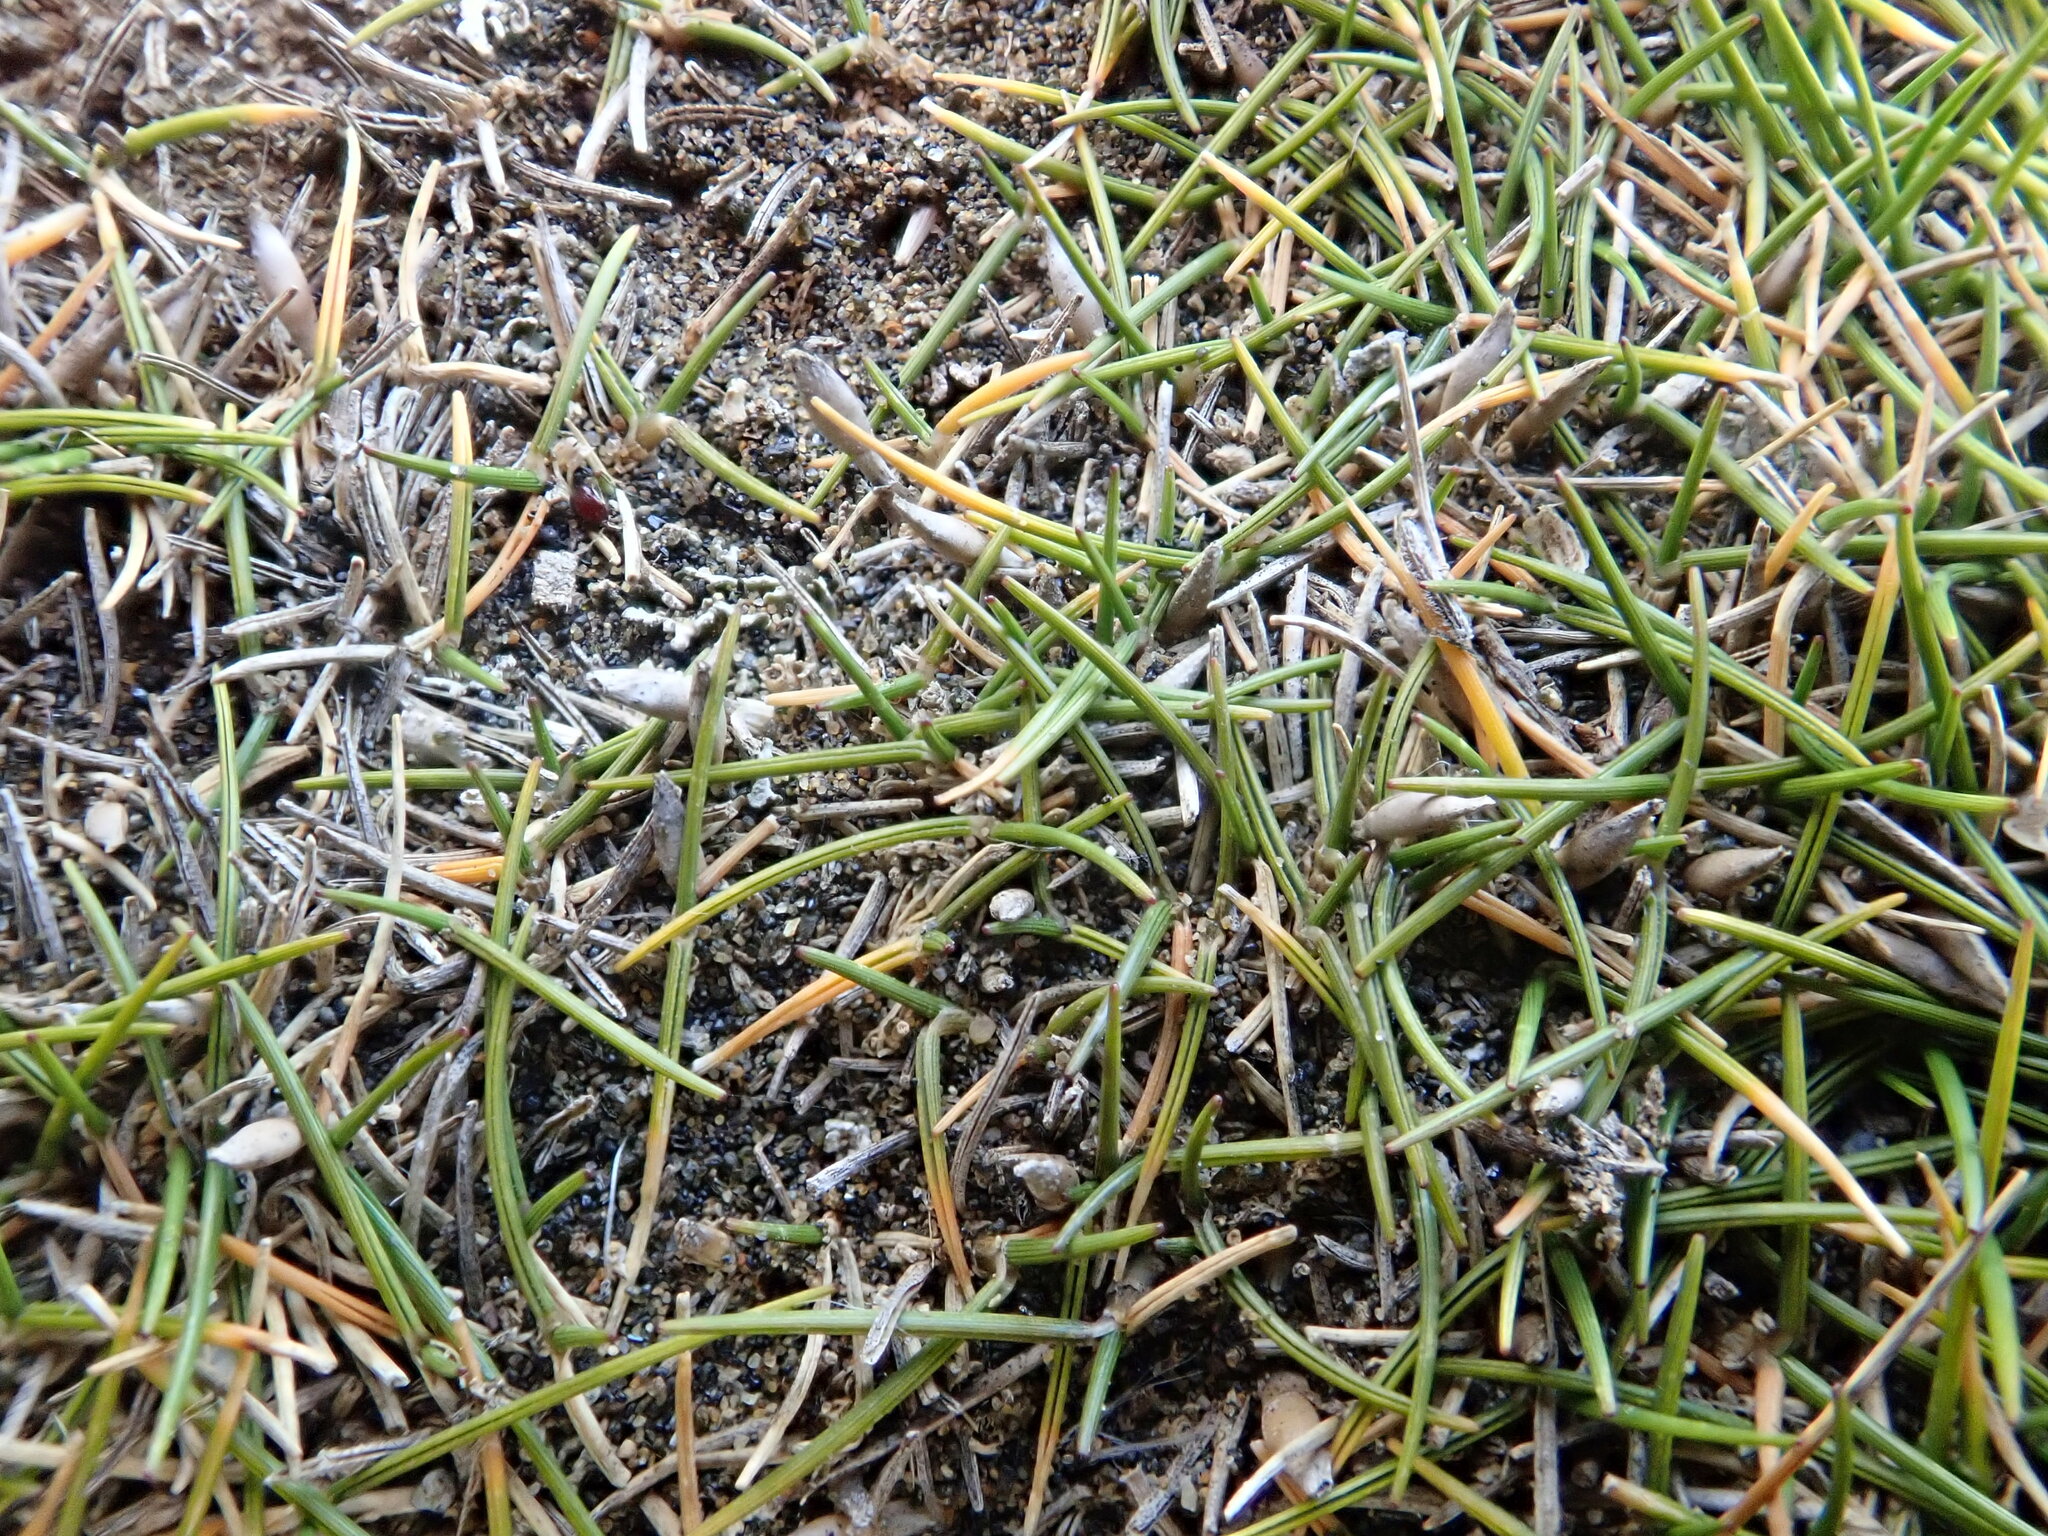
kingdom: Plantae
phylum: Tracheophyta
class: Liliopsida
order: Poales
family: Poaceae
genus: Zoysia
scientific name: Zoysia minima
